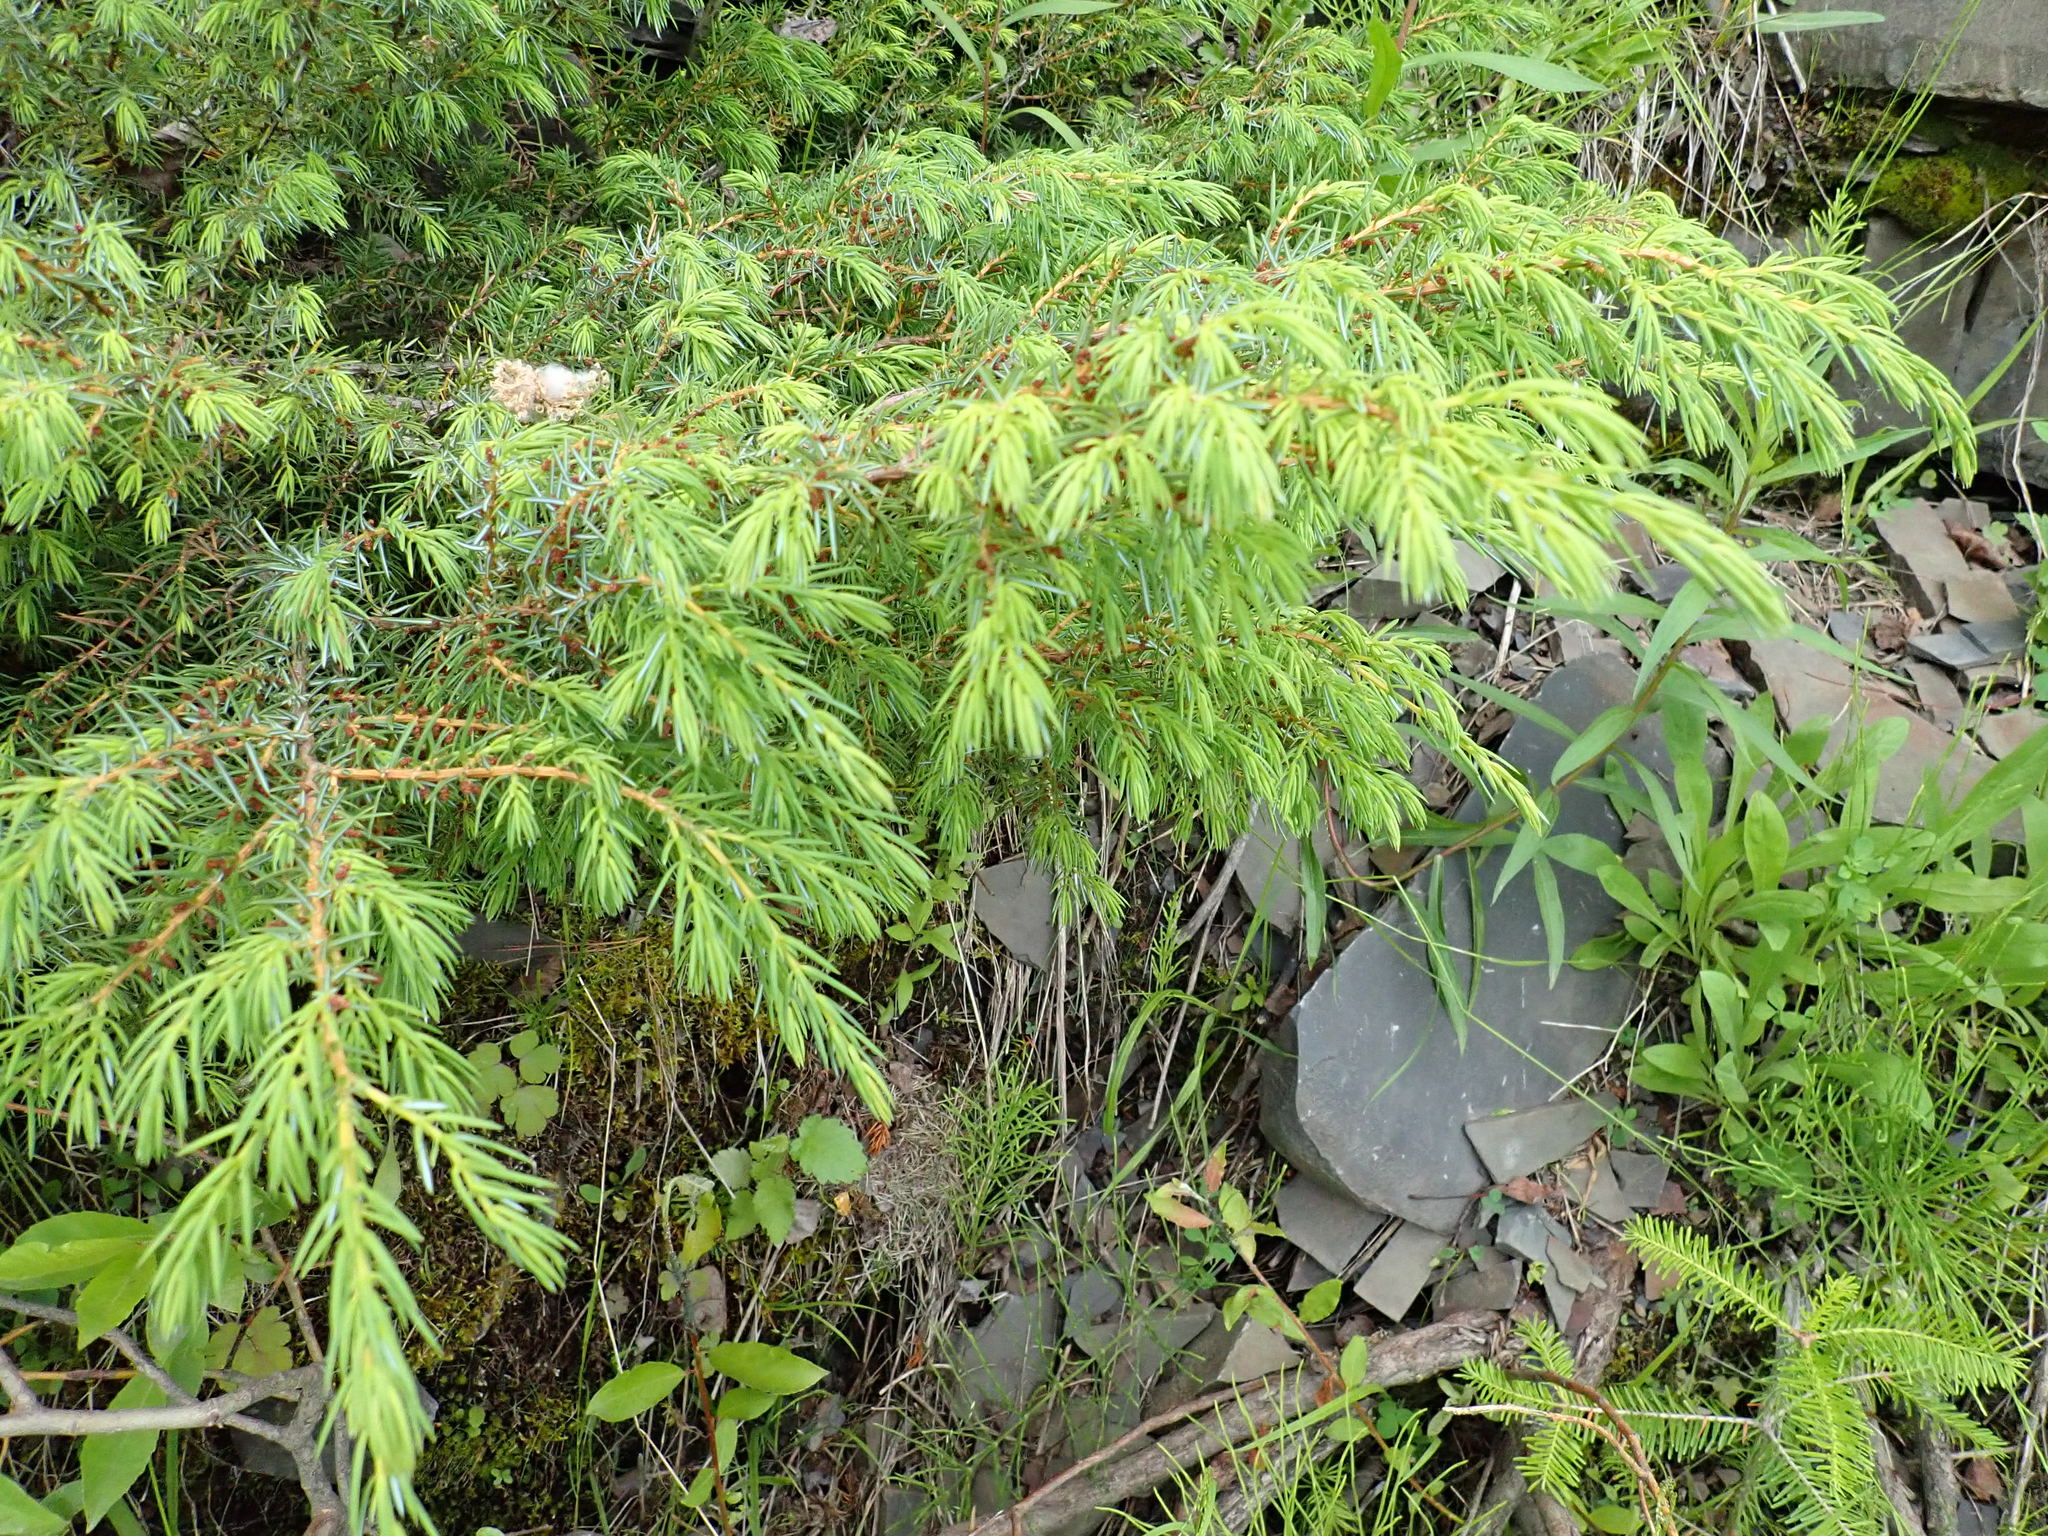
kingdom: Plantae
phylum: Tracheophyta
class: Pinopsida
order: Pinales
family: Cupressaceae
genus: Juniperus
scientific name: Juniperus communis
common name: Common juniper
